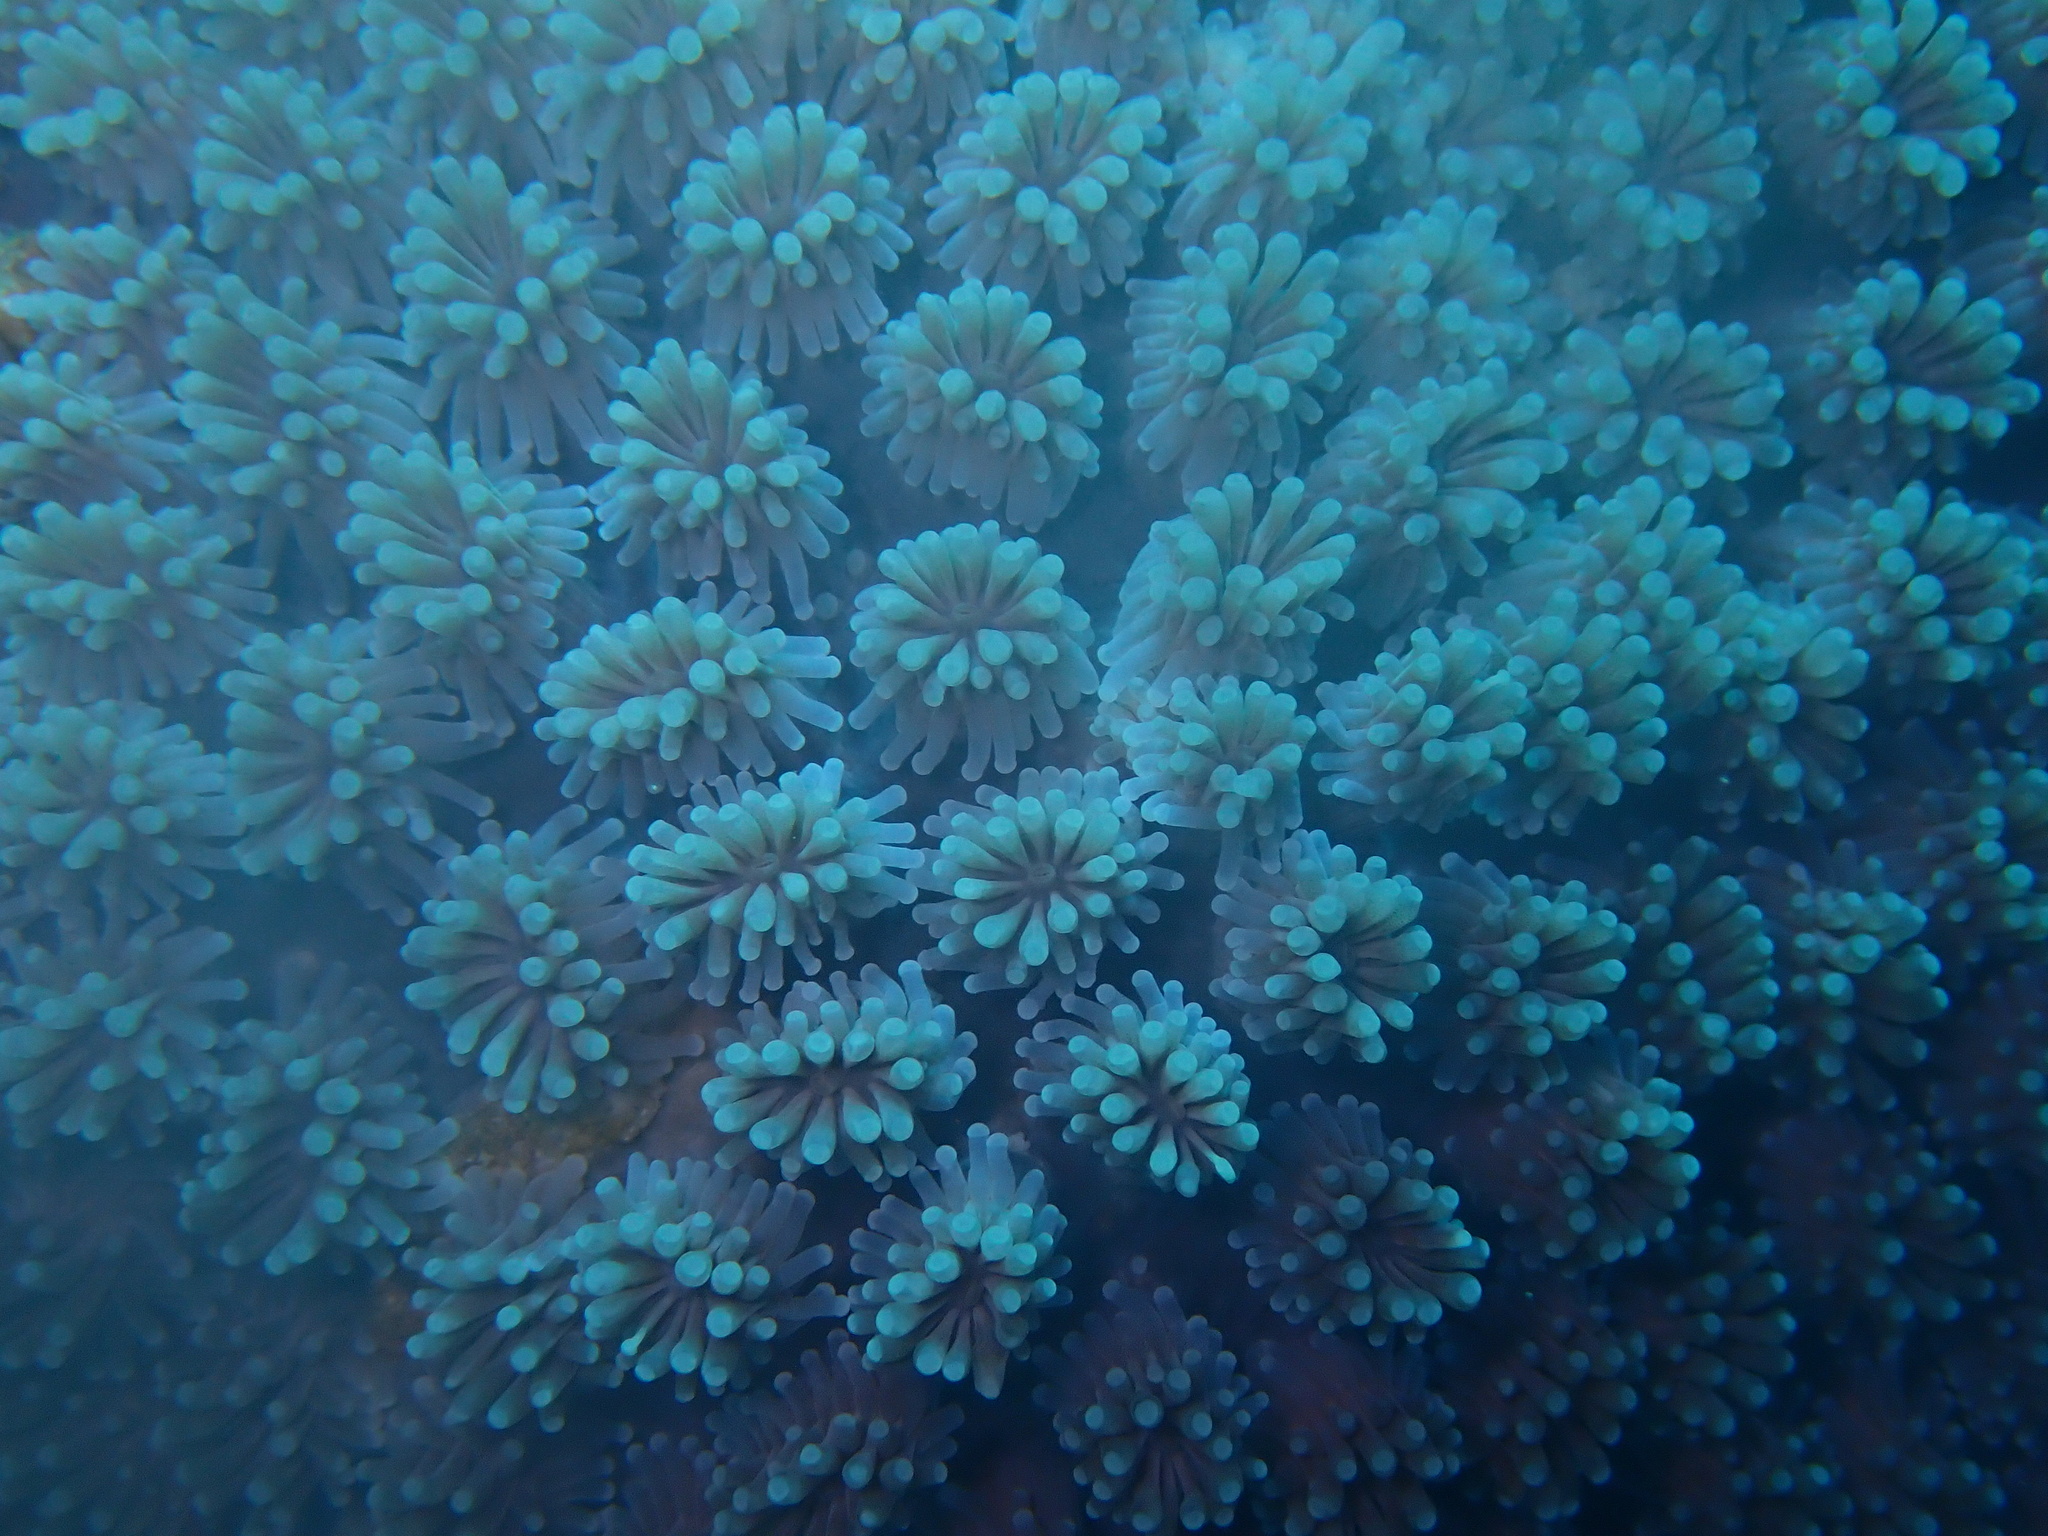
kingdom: Animalia
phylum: Cnidaria
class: Anthozoa
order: Scleractinia
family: Euphylliidae
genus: Galaxea
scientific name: Galaxea fascicularis
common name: Octopus coral
